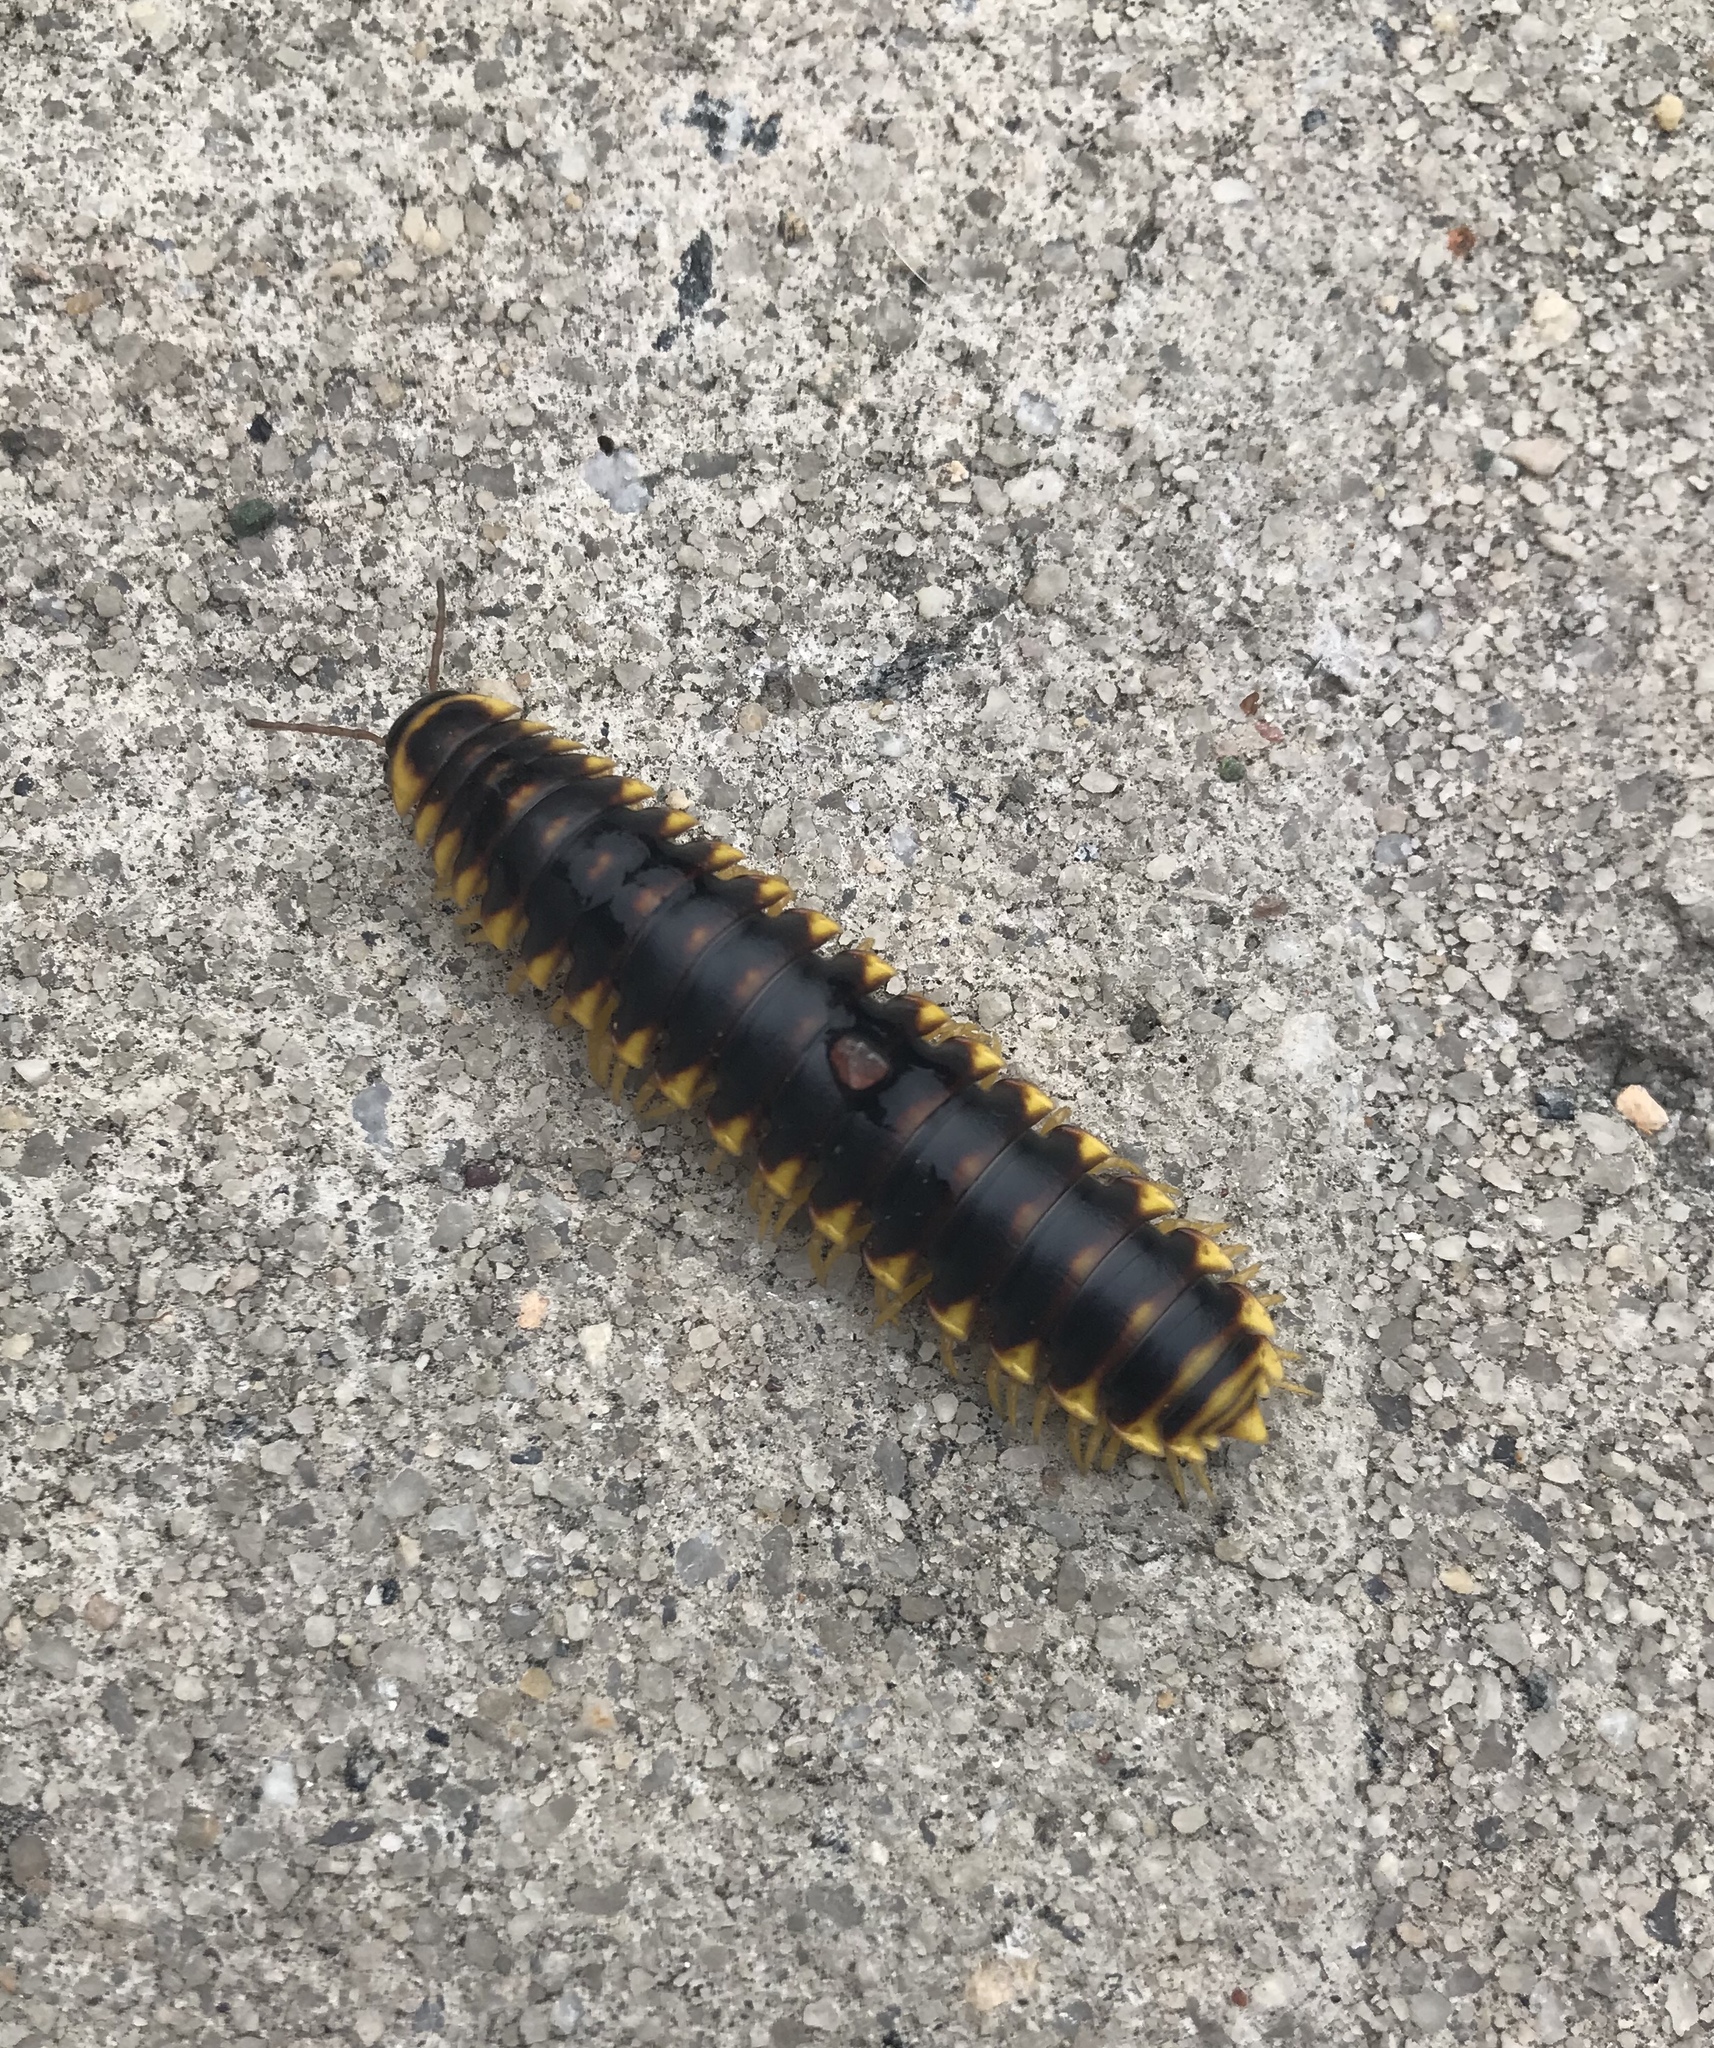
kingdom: Animalia
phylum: Arthropoda
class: Diplopoda
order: Polydesmida
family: Xystodesmidae
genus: Apheloria
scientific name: Apheloria tigana
